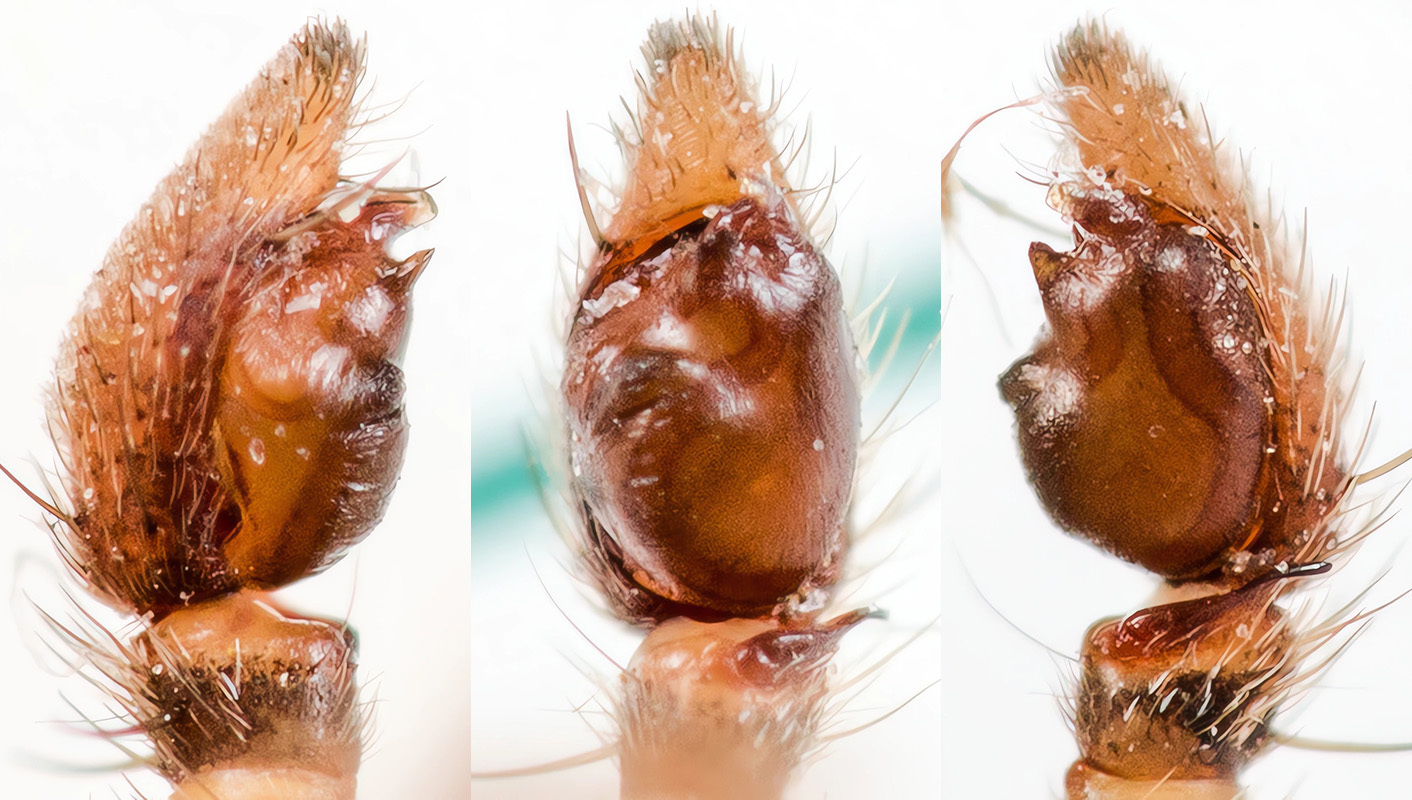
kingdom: Animalia
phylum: Arthropoda
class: Arachnida
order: Araneae
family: Philodromidae
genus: Thanatus
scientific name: Thanatus kitabensis
